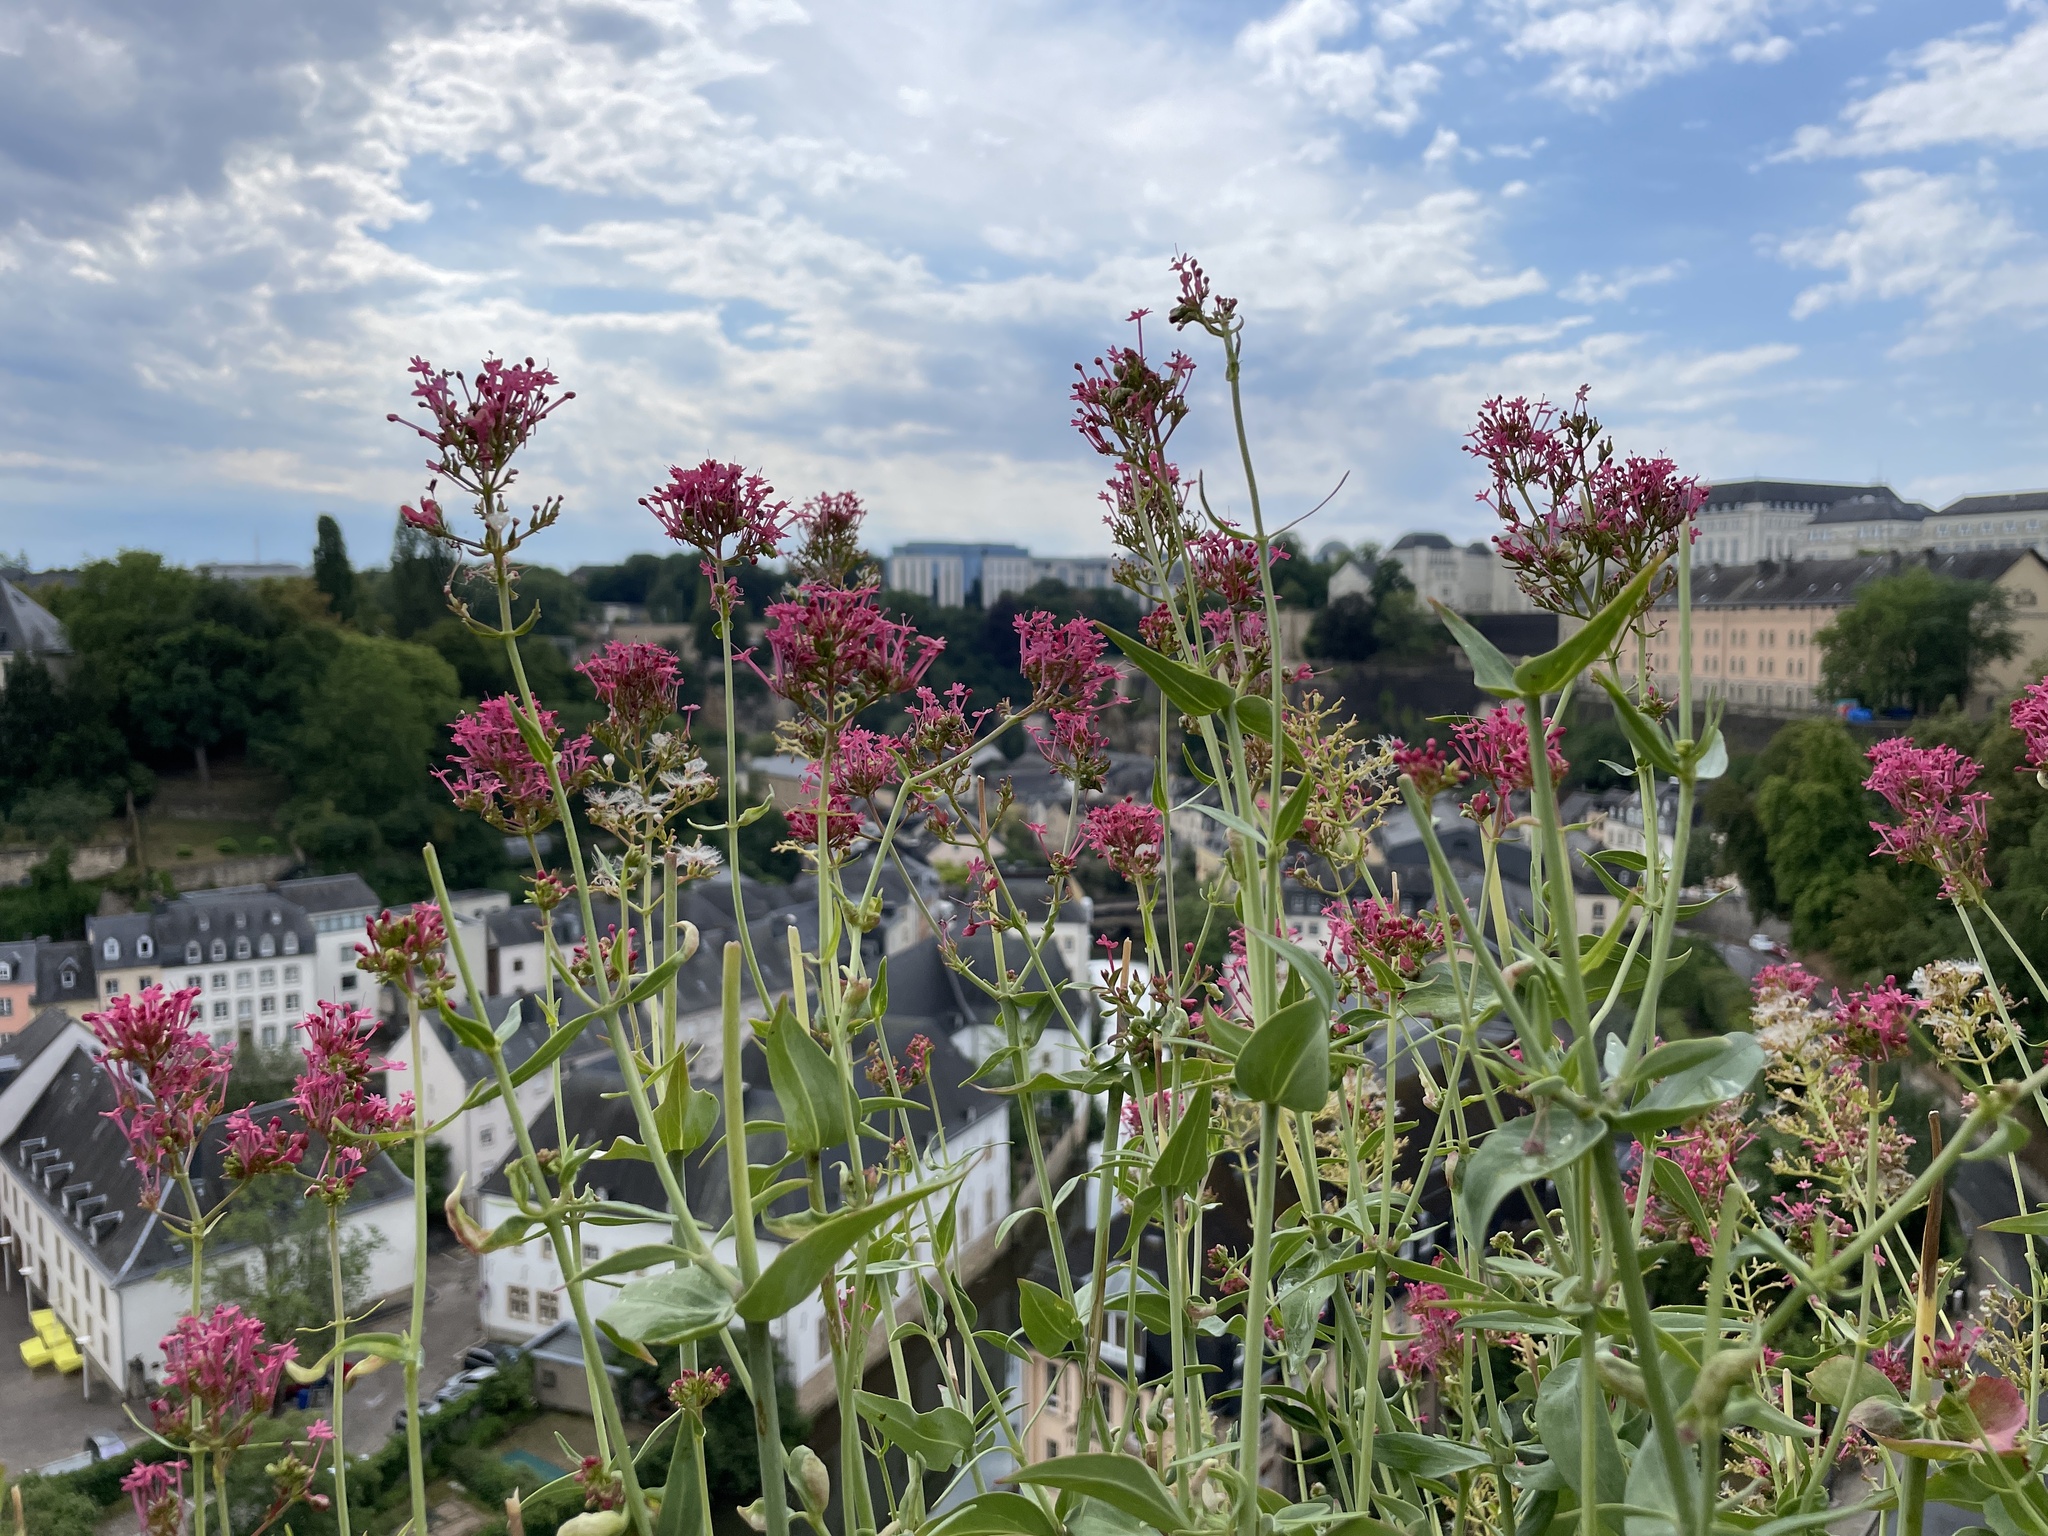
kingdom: Plantae
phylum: Tracheophyta
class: Magnoliopsida
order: Dipsacales
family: Caprifoliaceae
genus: Centranthus
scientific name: Centranthus ruber
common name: Red valerian
